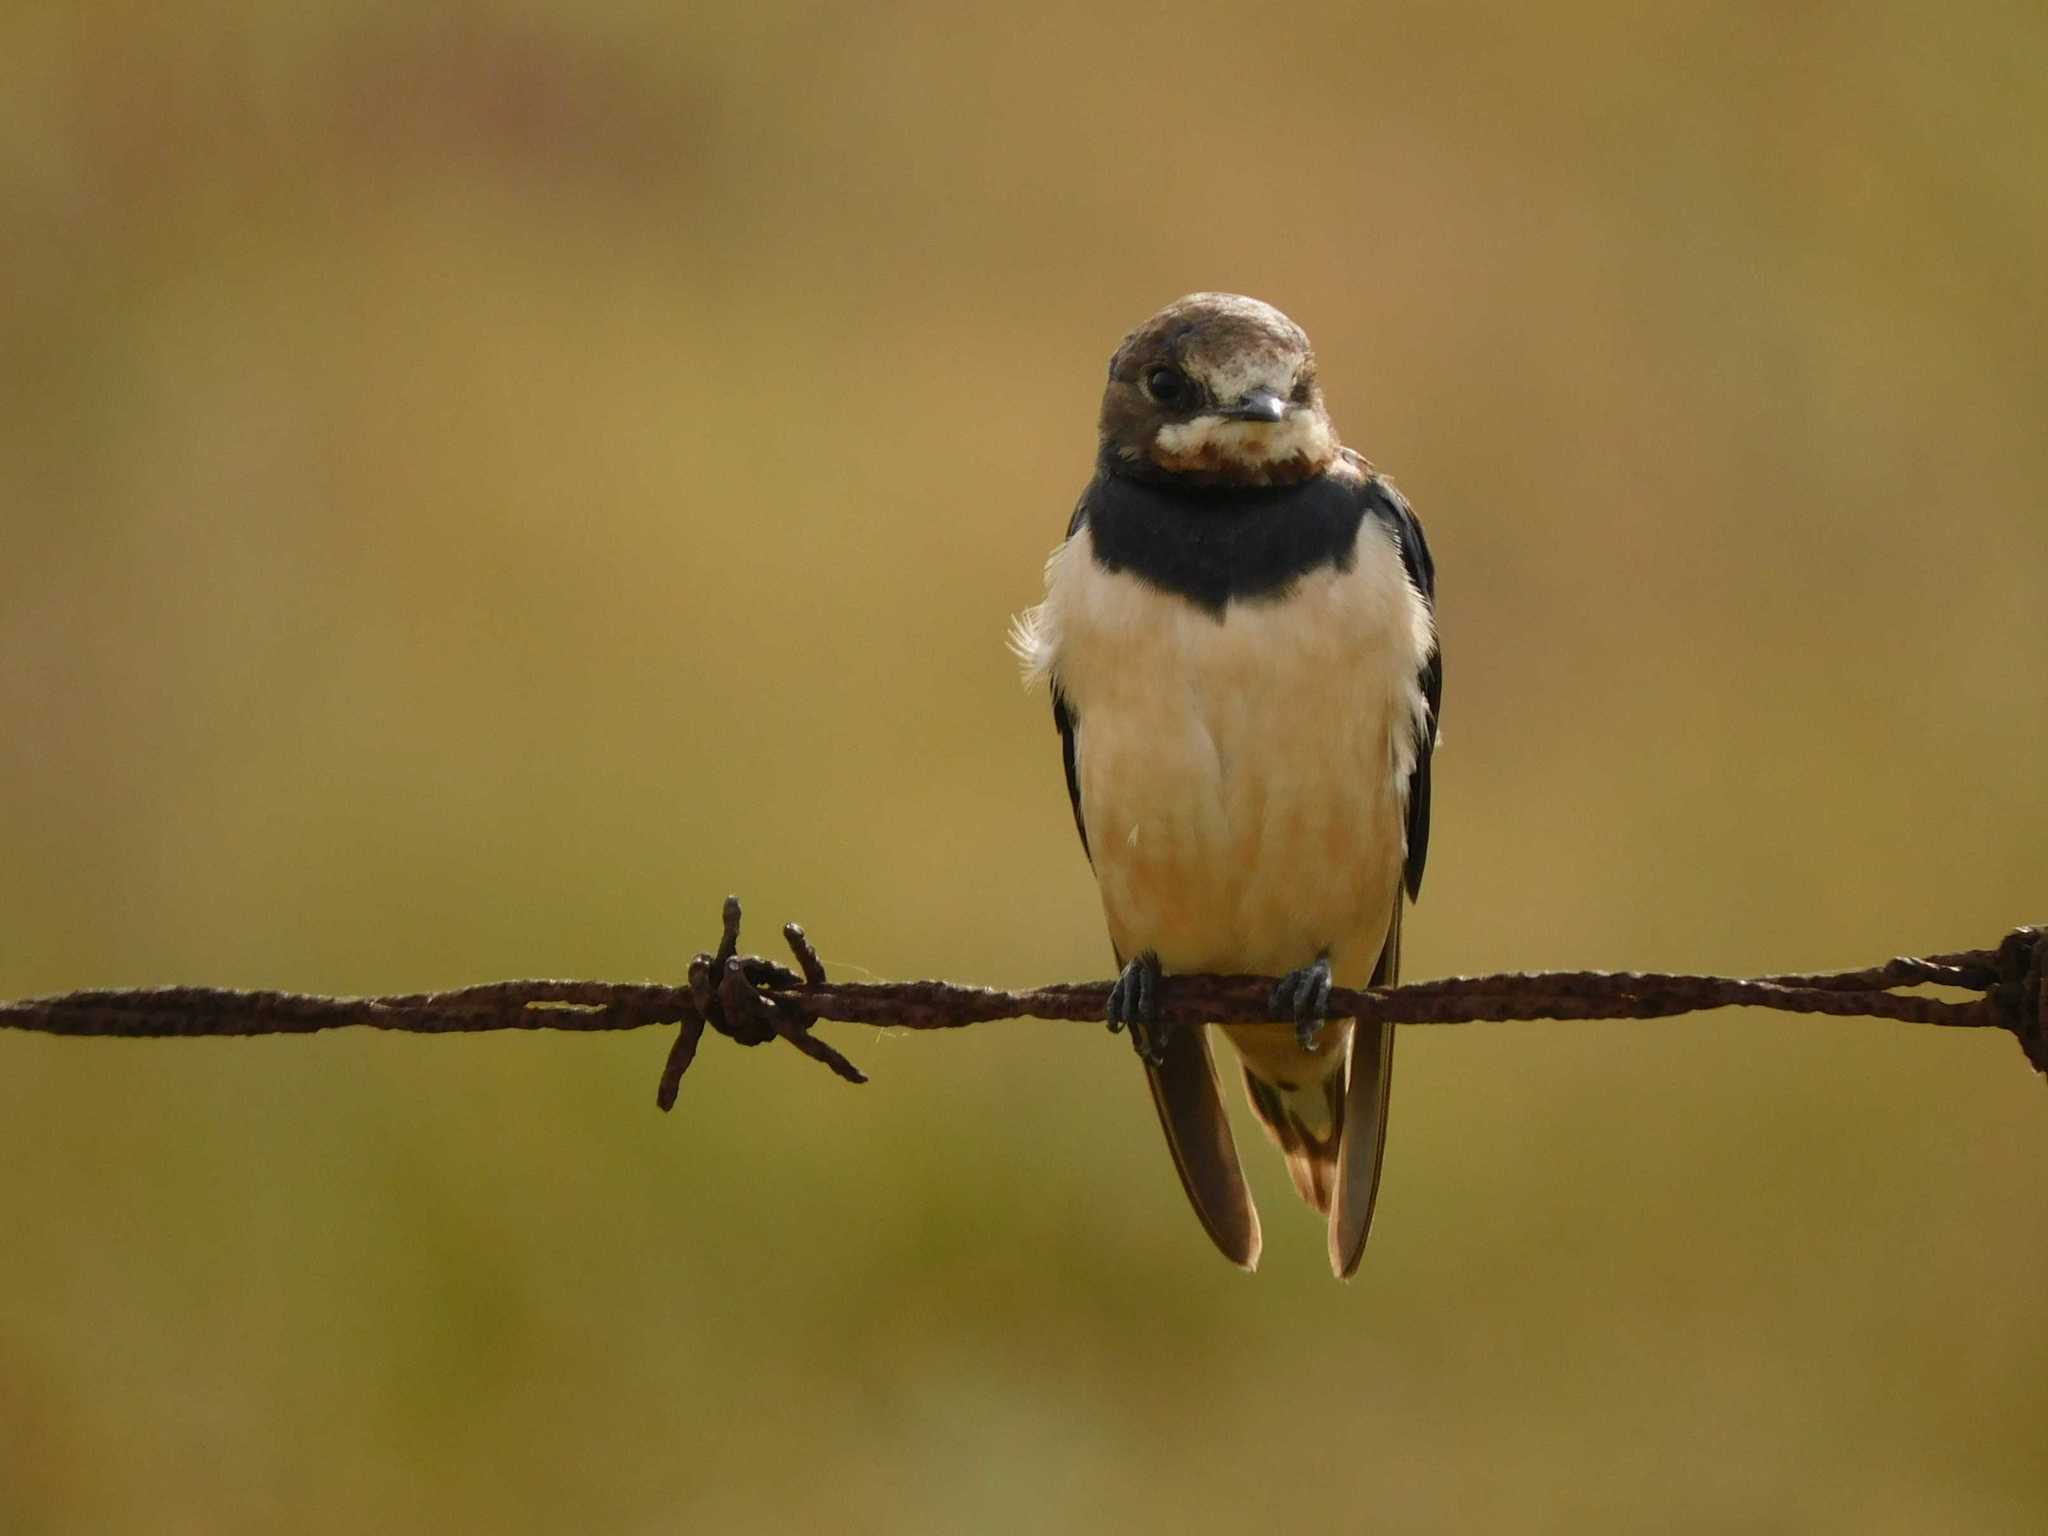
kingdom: Animalia
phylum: Chordata
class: Aves
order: Passeriformes
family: Hirundinidae
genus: Hirundo
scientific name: Hirundo rustica
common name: Barn swallow
